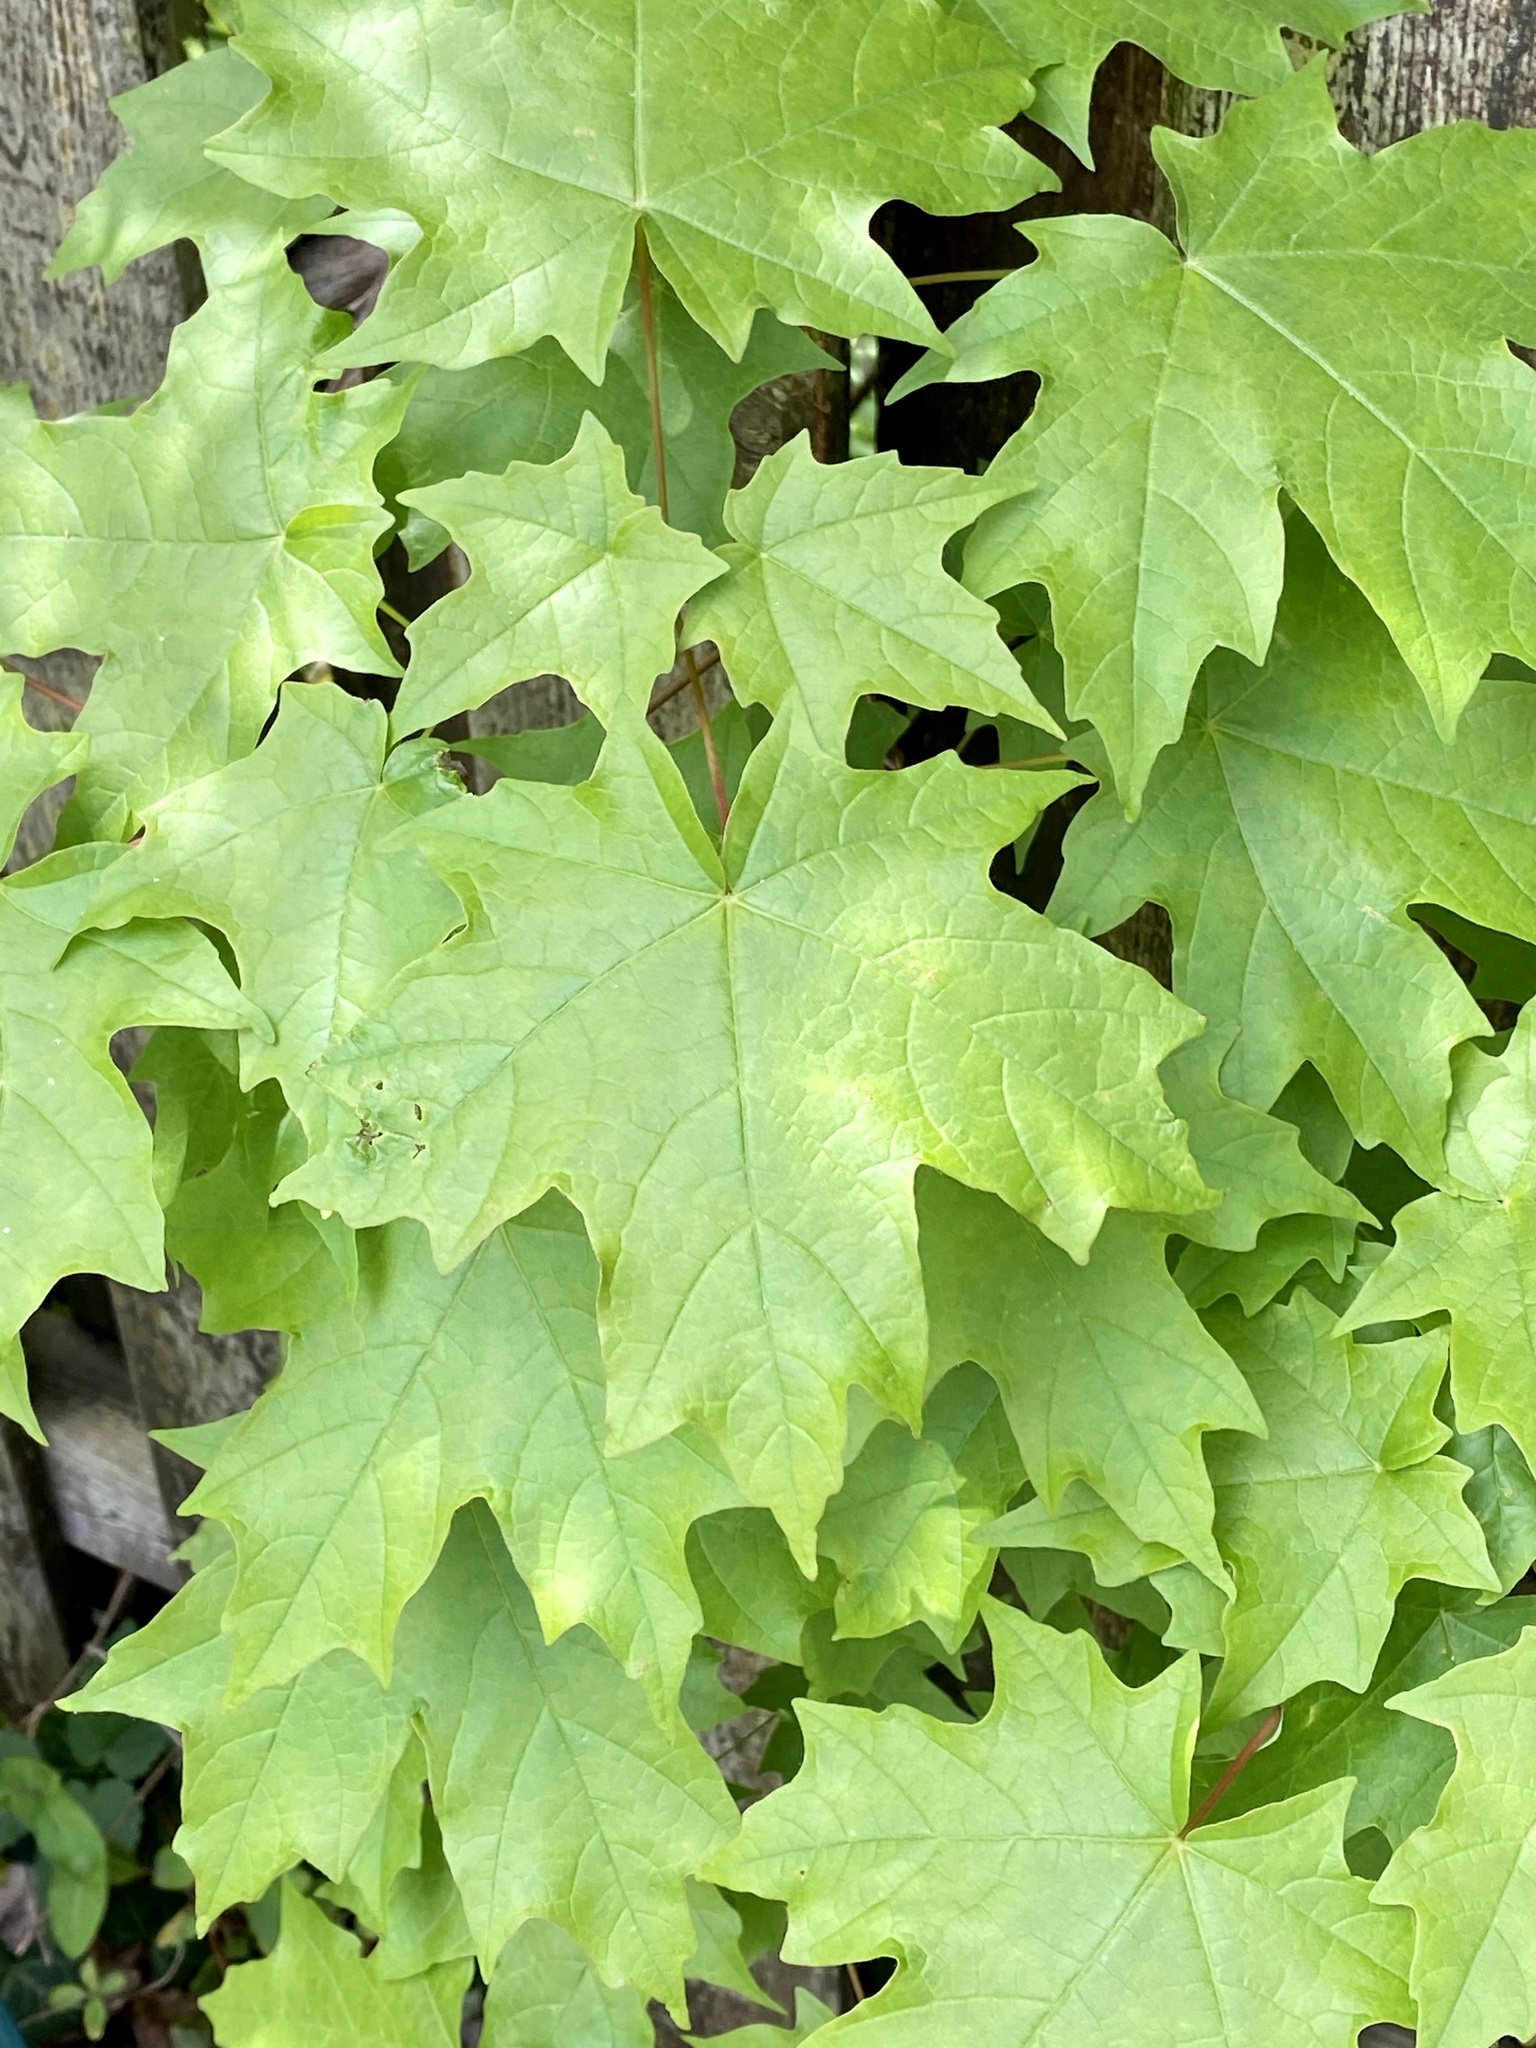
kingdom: Plantae
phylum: Tracheophyta
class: Magnoliopsida
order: Sapindales
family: Sapindaceae
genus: Acer
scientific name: Acer platanoides
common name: Norway maple
